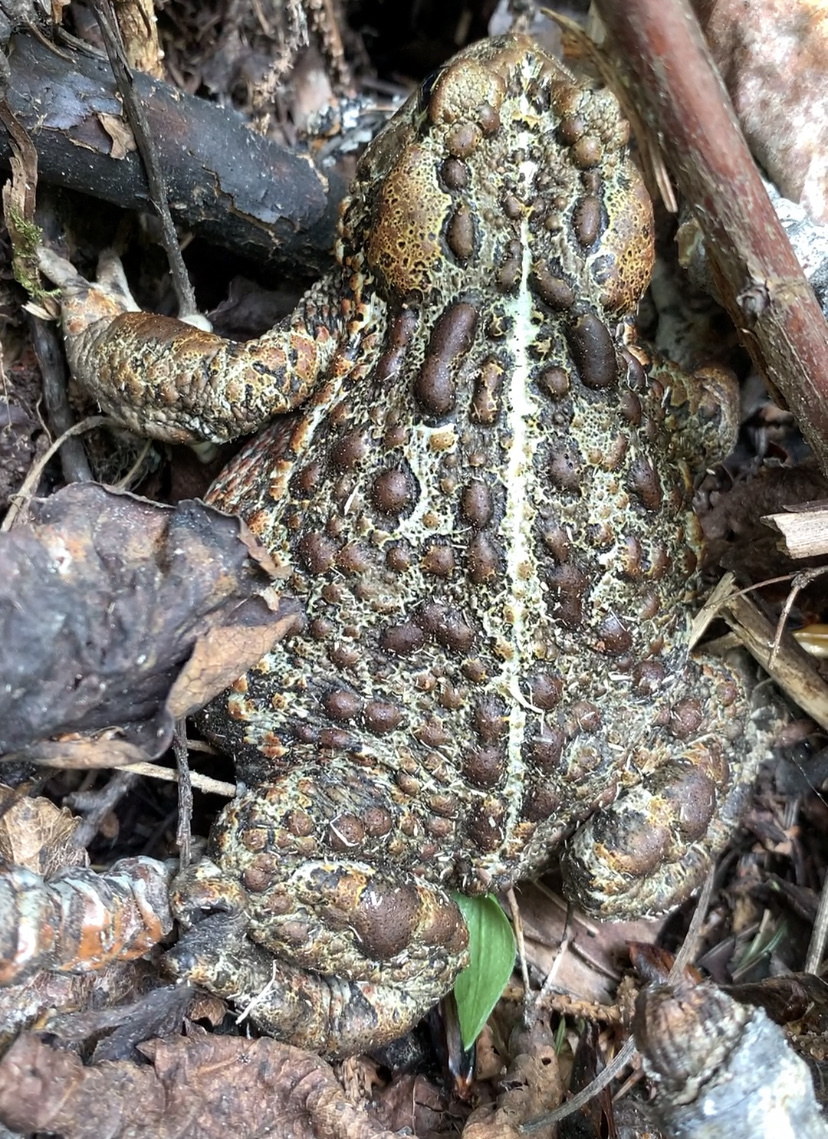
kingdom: Animalia
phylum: Chordata
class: Amphibia
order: Anura
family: Bufonidae
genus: Anaxyrus
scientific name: Anaxyrus boreas
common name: Western toad
